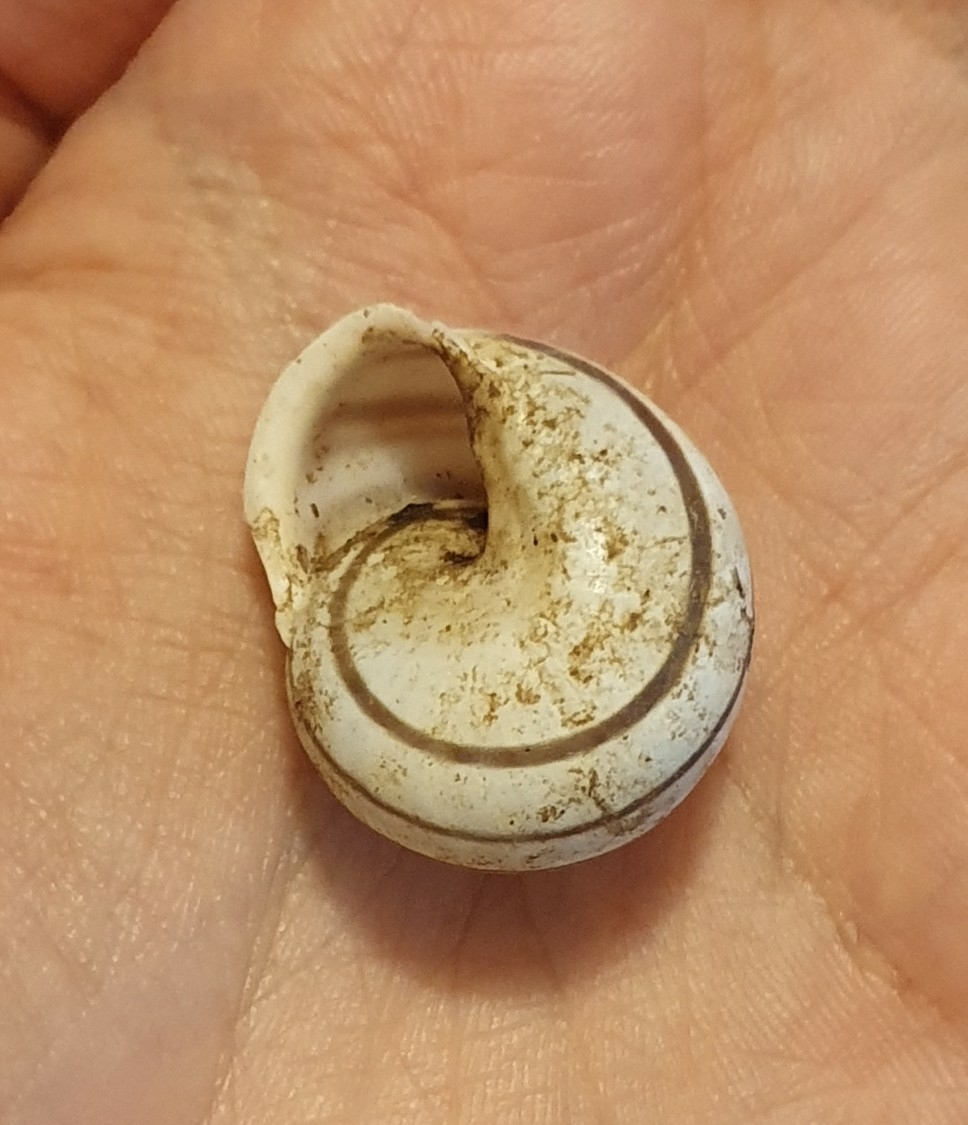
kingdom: Animalia
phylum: Mollusca
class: Gastropoda
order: Stylommatophora
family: Helicidae
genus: Eobania
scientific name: Eobania constantina
